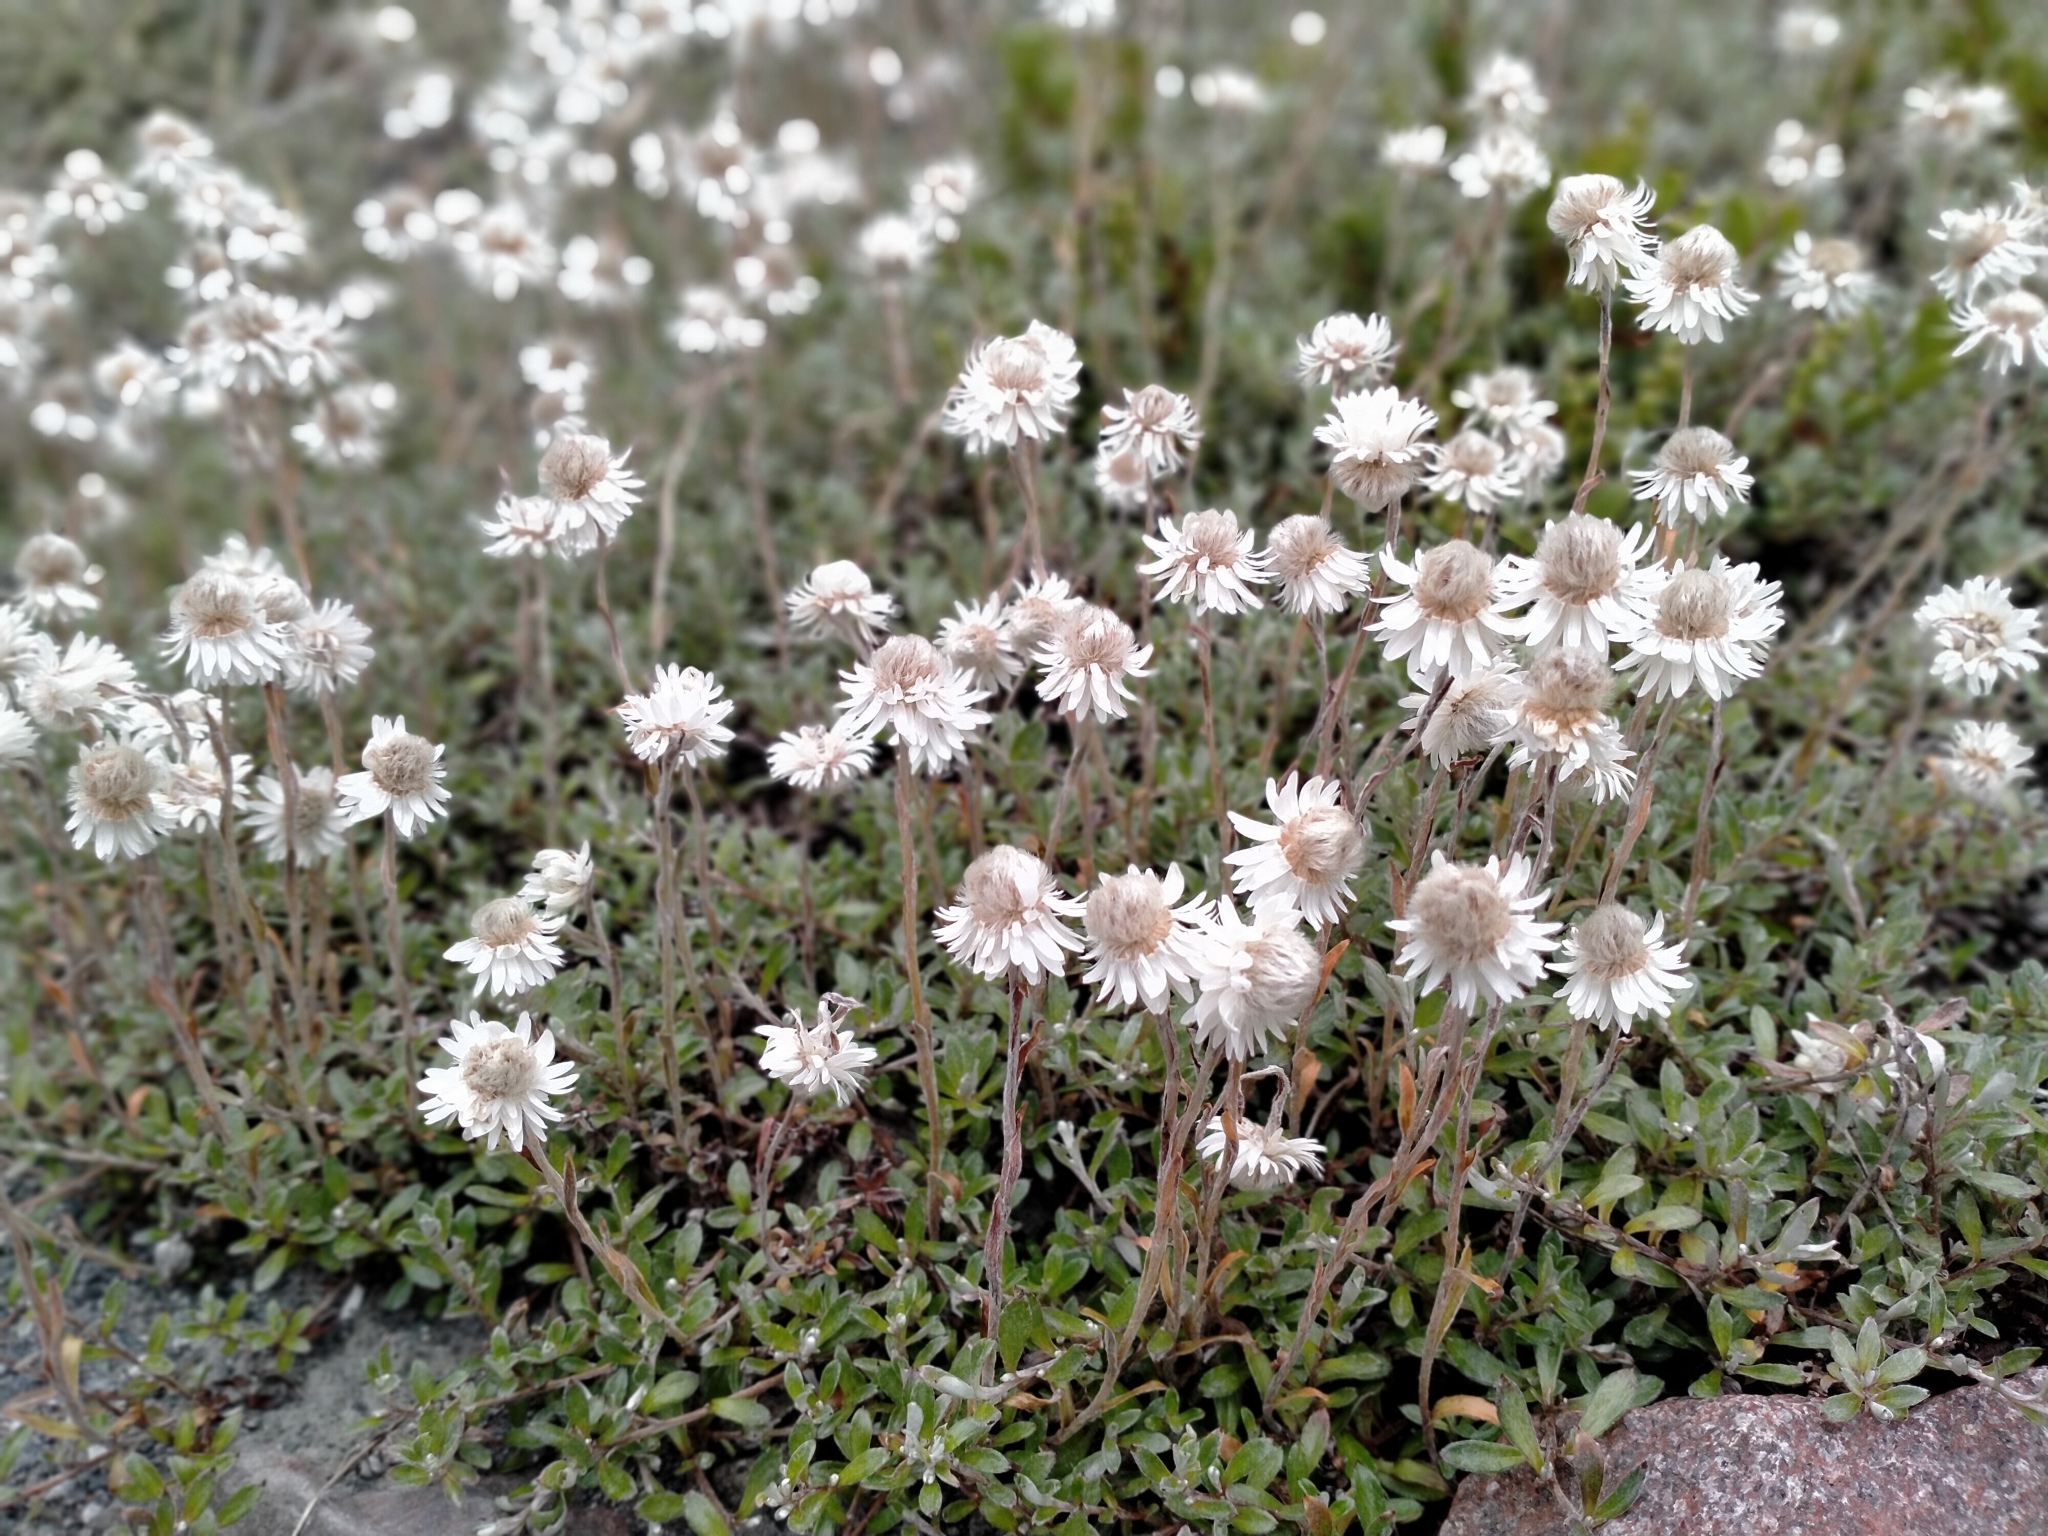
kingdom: Plantae
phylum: Tracheophyta
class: Magnoliopsida
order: Asterales
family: Asteraceae
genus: Anaphalioides
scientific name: Anaphalioides bellidioides
